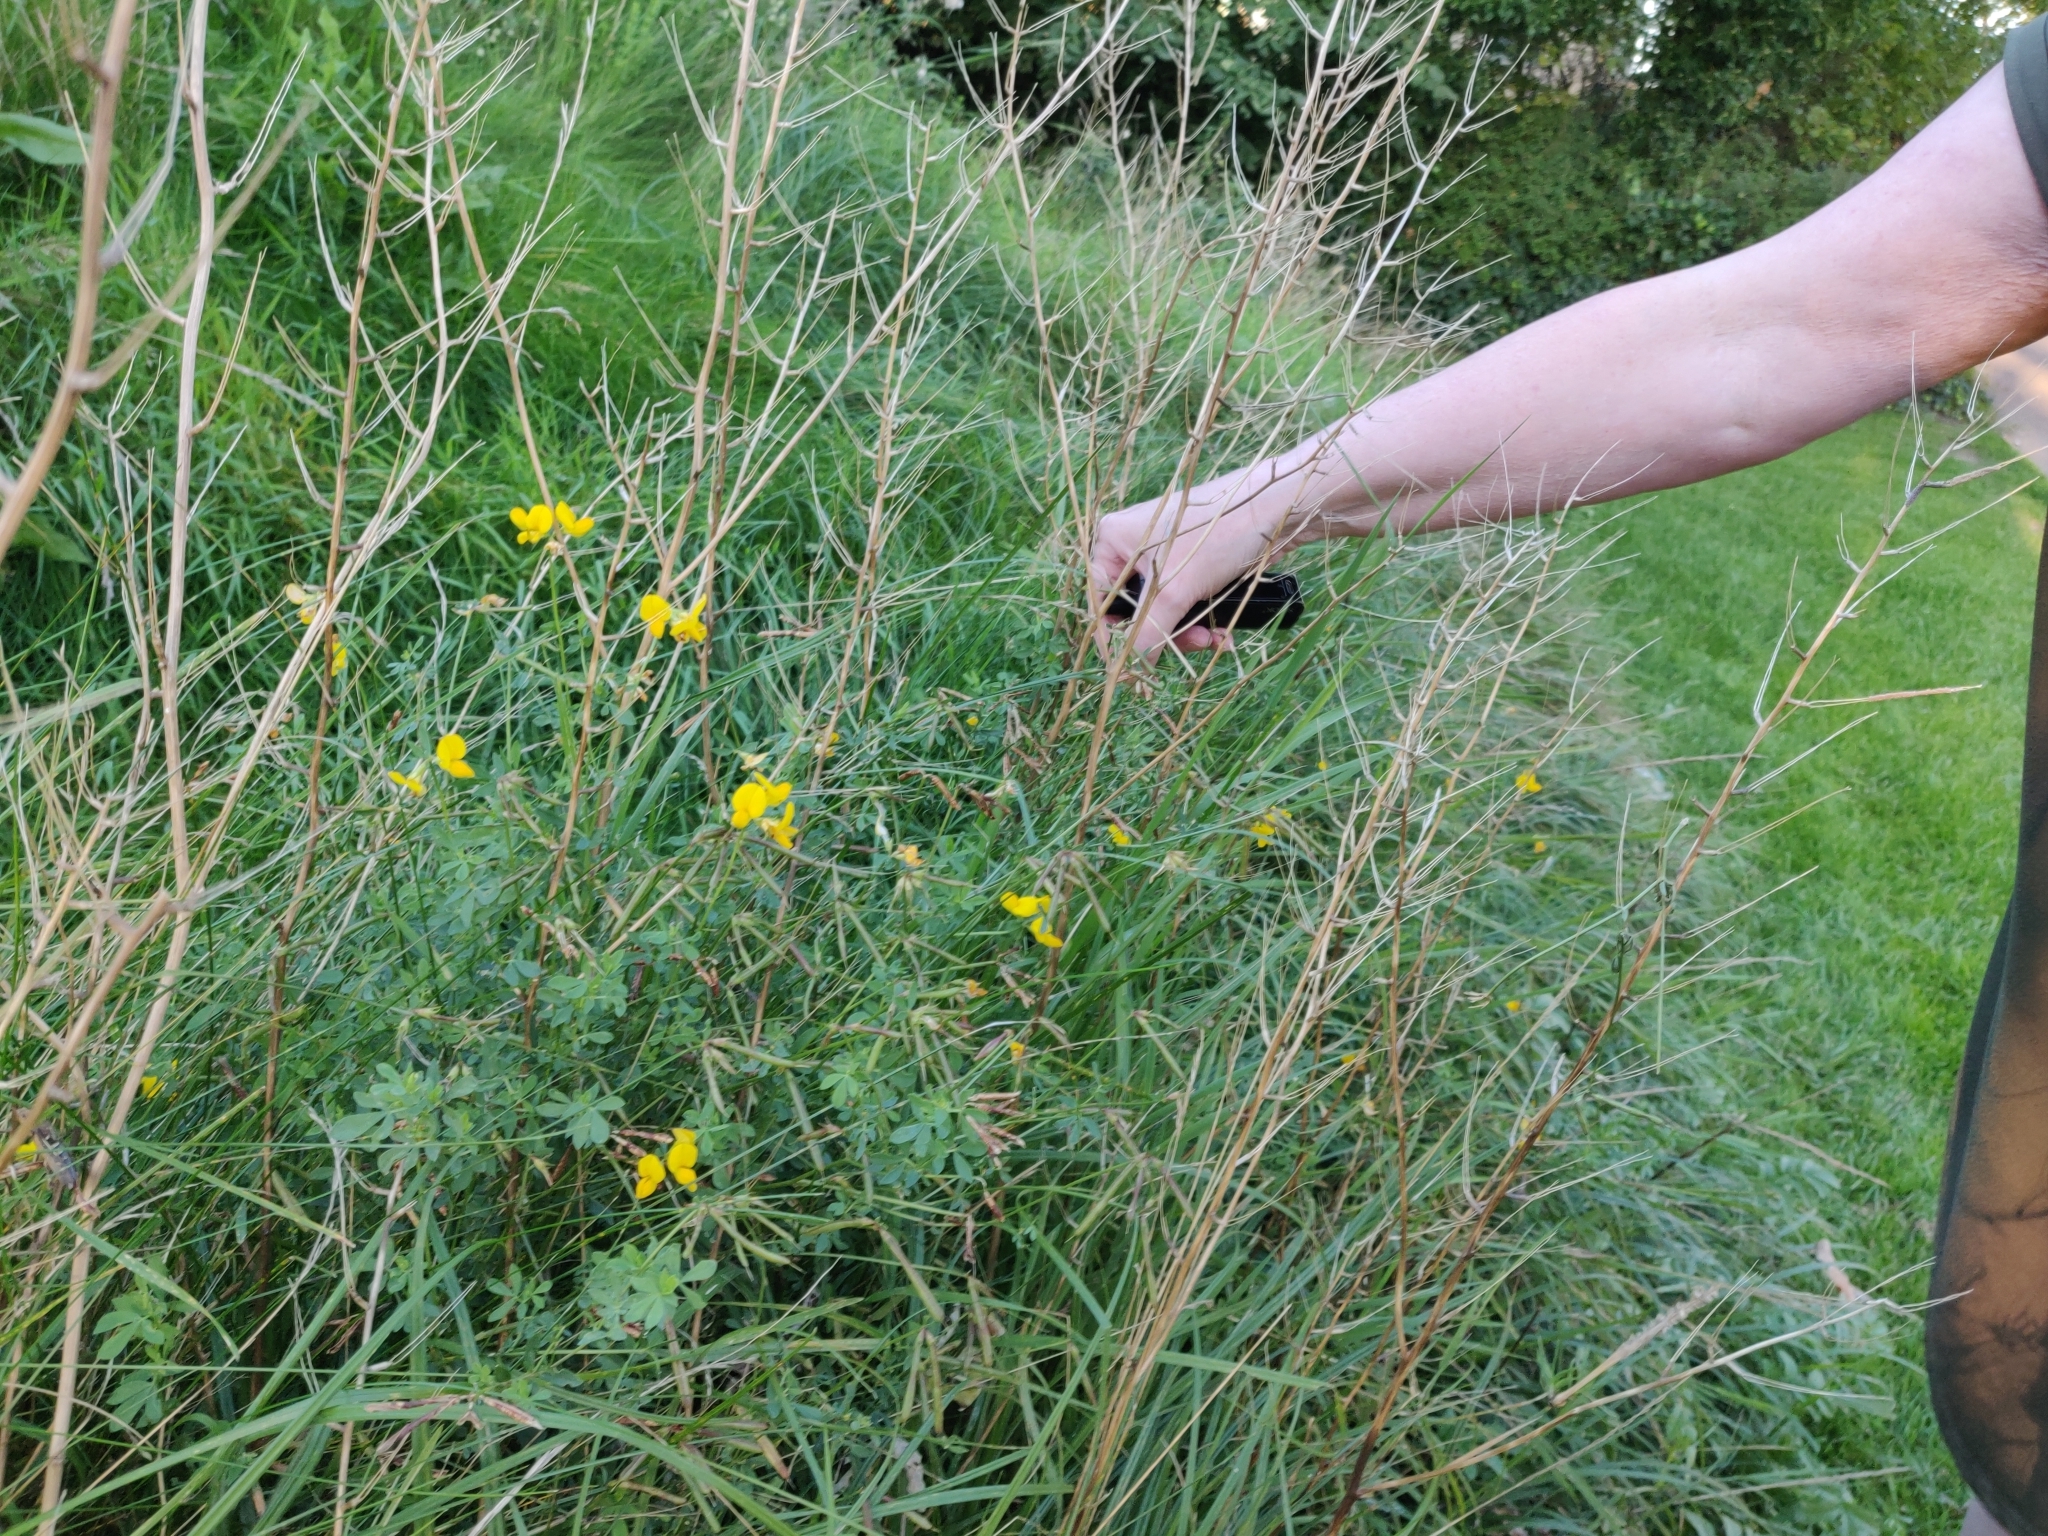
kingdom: Plantae
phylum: Tracheophyta
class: Magnoliopsida
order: Fabales
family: Fabaceae
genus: Lotus
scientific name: Lotus corniculatus
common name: Common bird's-foot-trefoil
